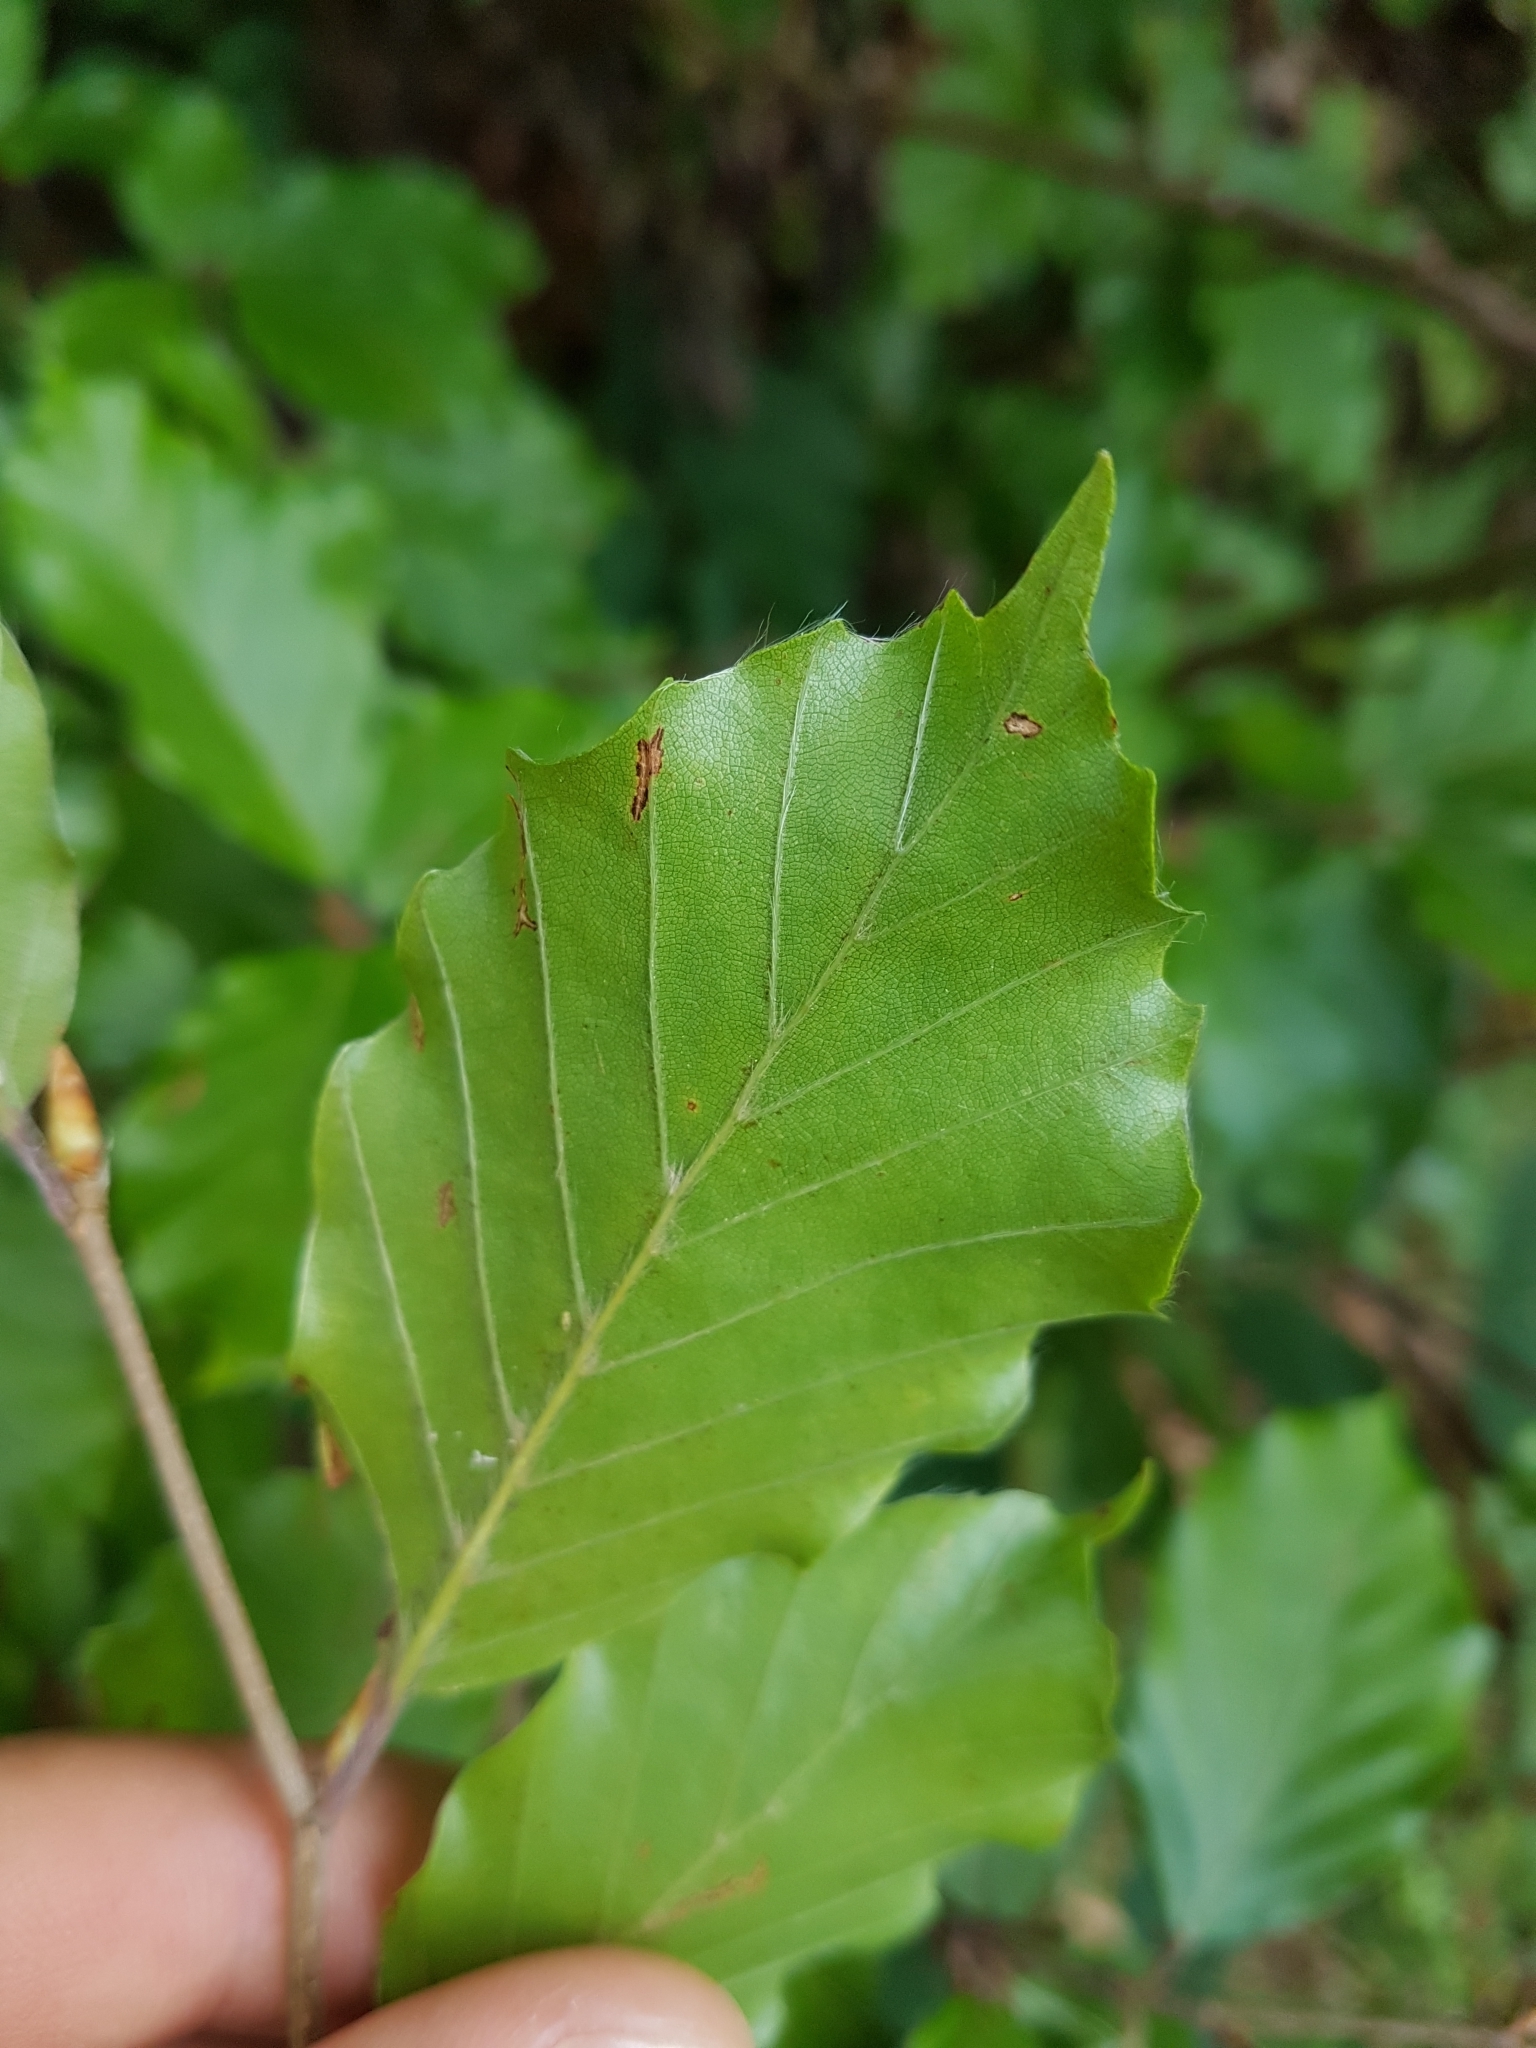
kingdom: Plantae
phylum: Tracheophyta
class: Magnoliopsida
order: Fagales
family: Fagaceae
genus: Fagus
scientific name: Fagus sylvatica
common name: Beech
